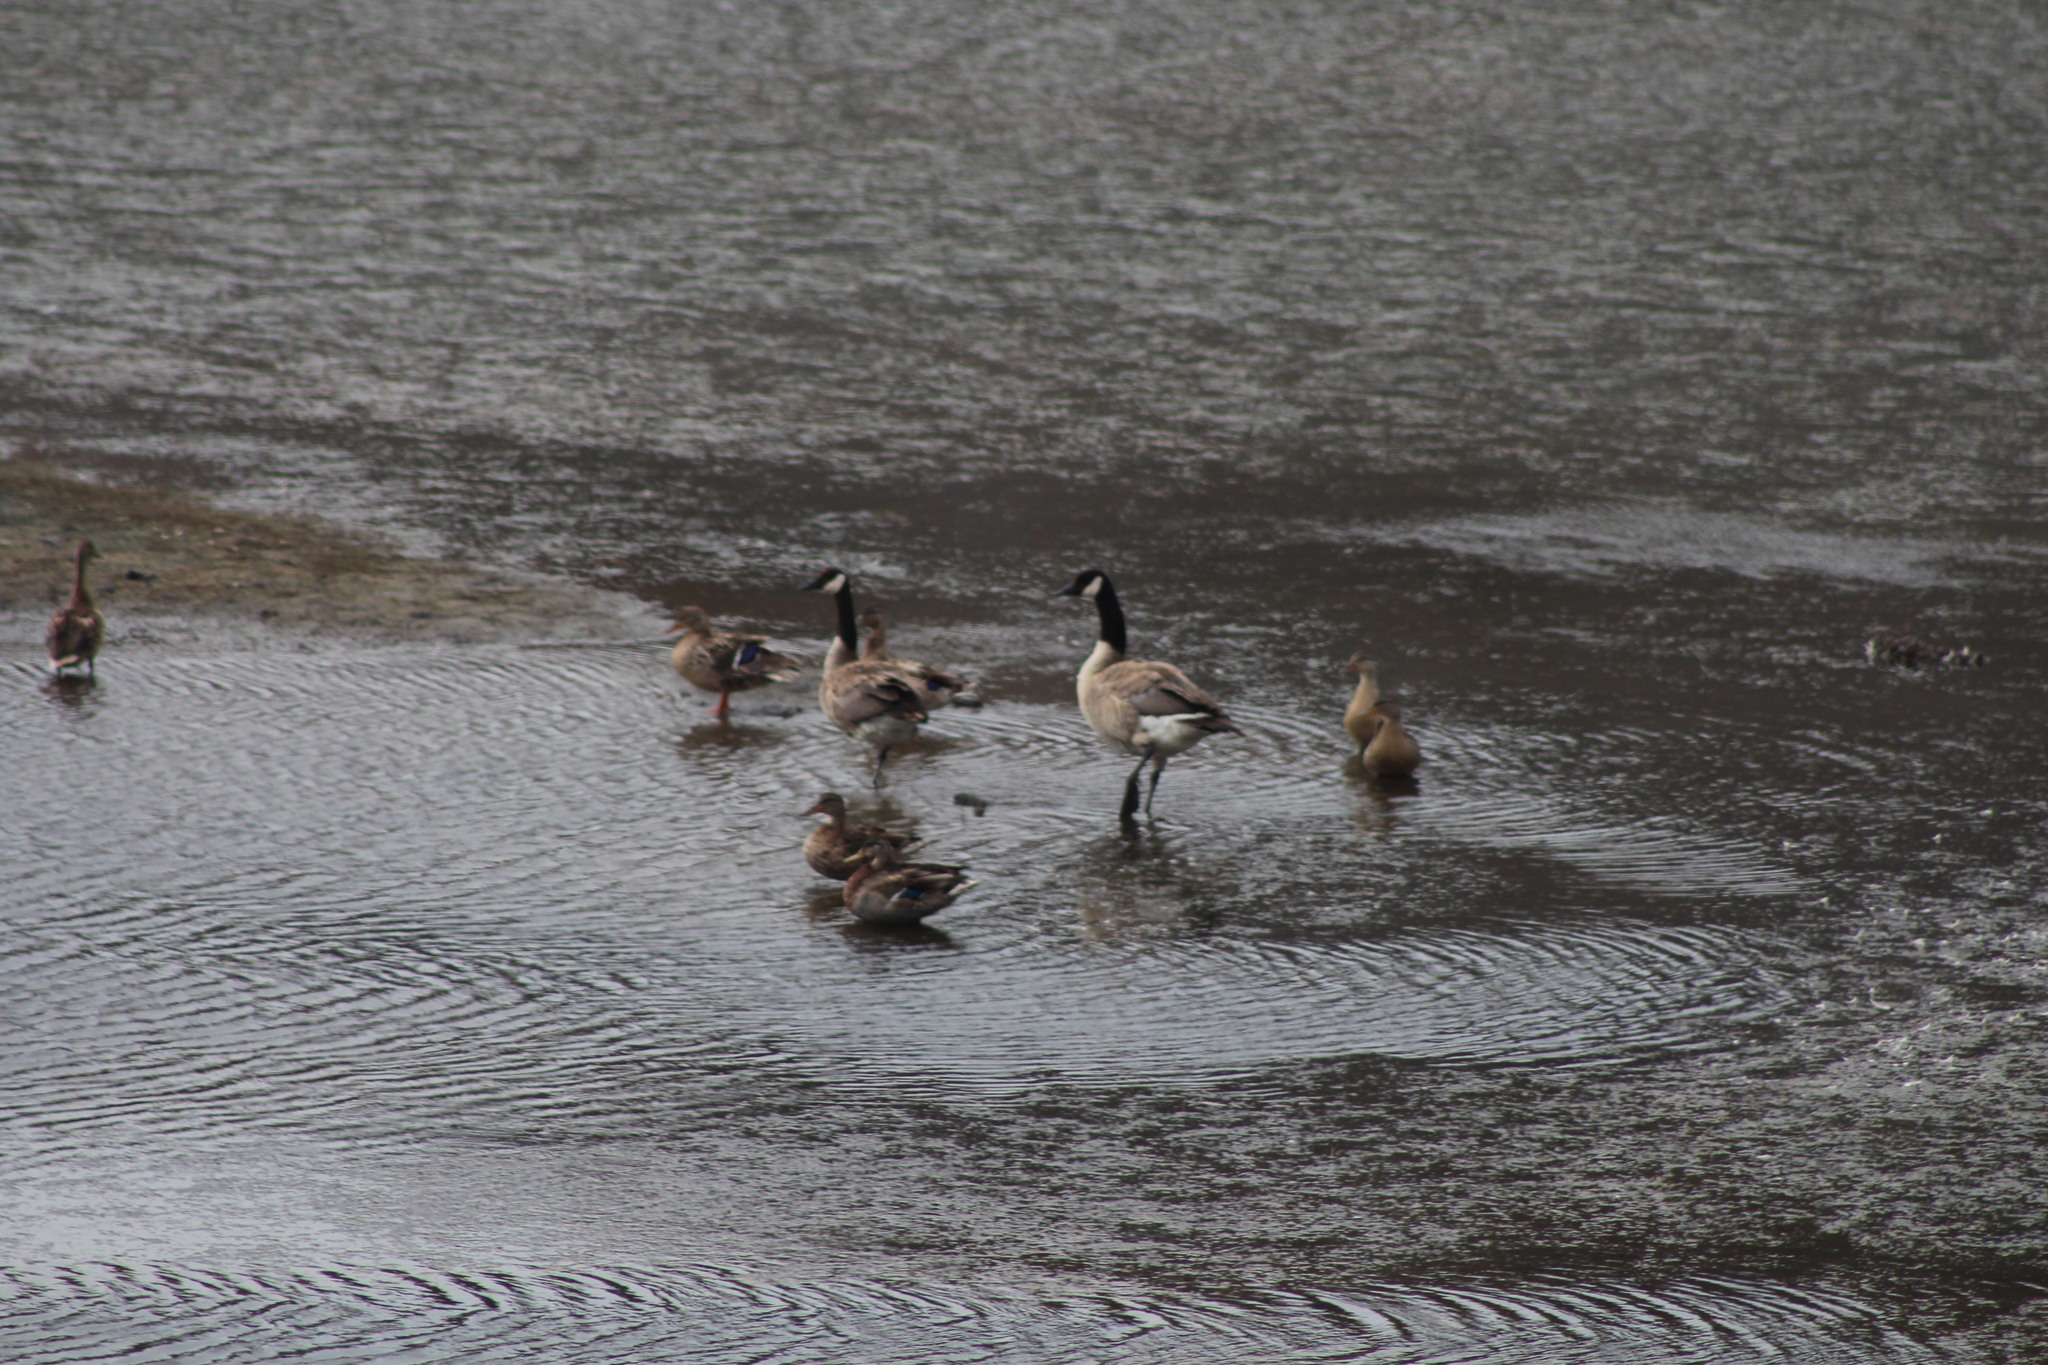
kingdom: Animalia
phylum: Chordata
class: Aves
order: Anseriformes
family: Anatidae
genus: Branta
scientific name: Branta canadensis
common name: Canada goose
